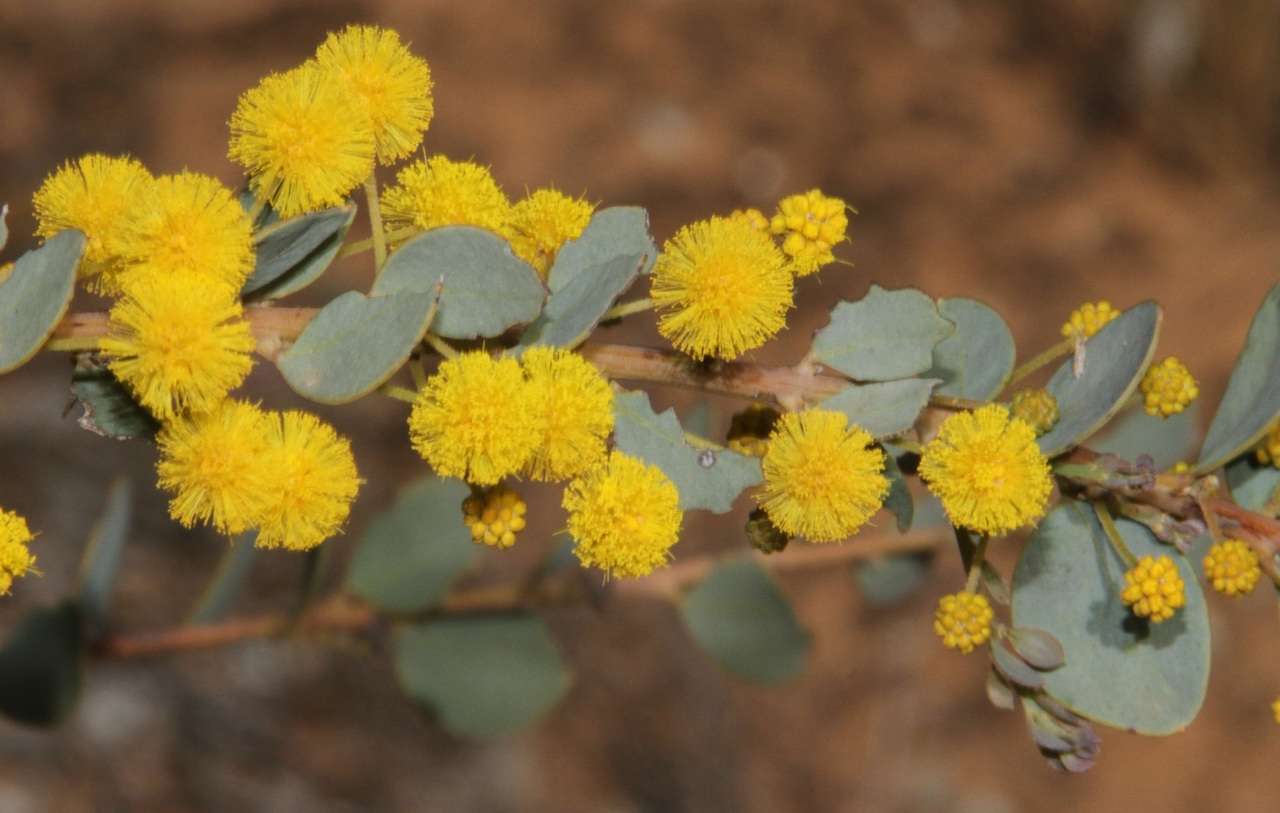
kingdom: Plantae
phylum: Tracheophyta
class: Magnoliopsida
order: Fabales
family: Fabaceae
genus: Acacia
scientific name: Acacia brachybotrya
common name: Grey mulga
